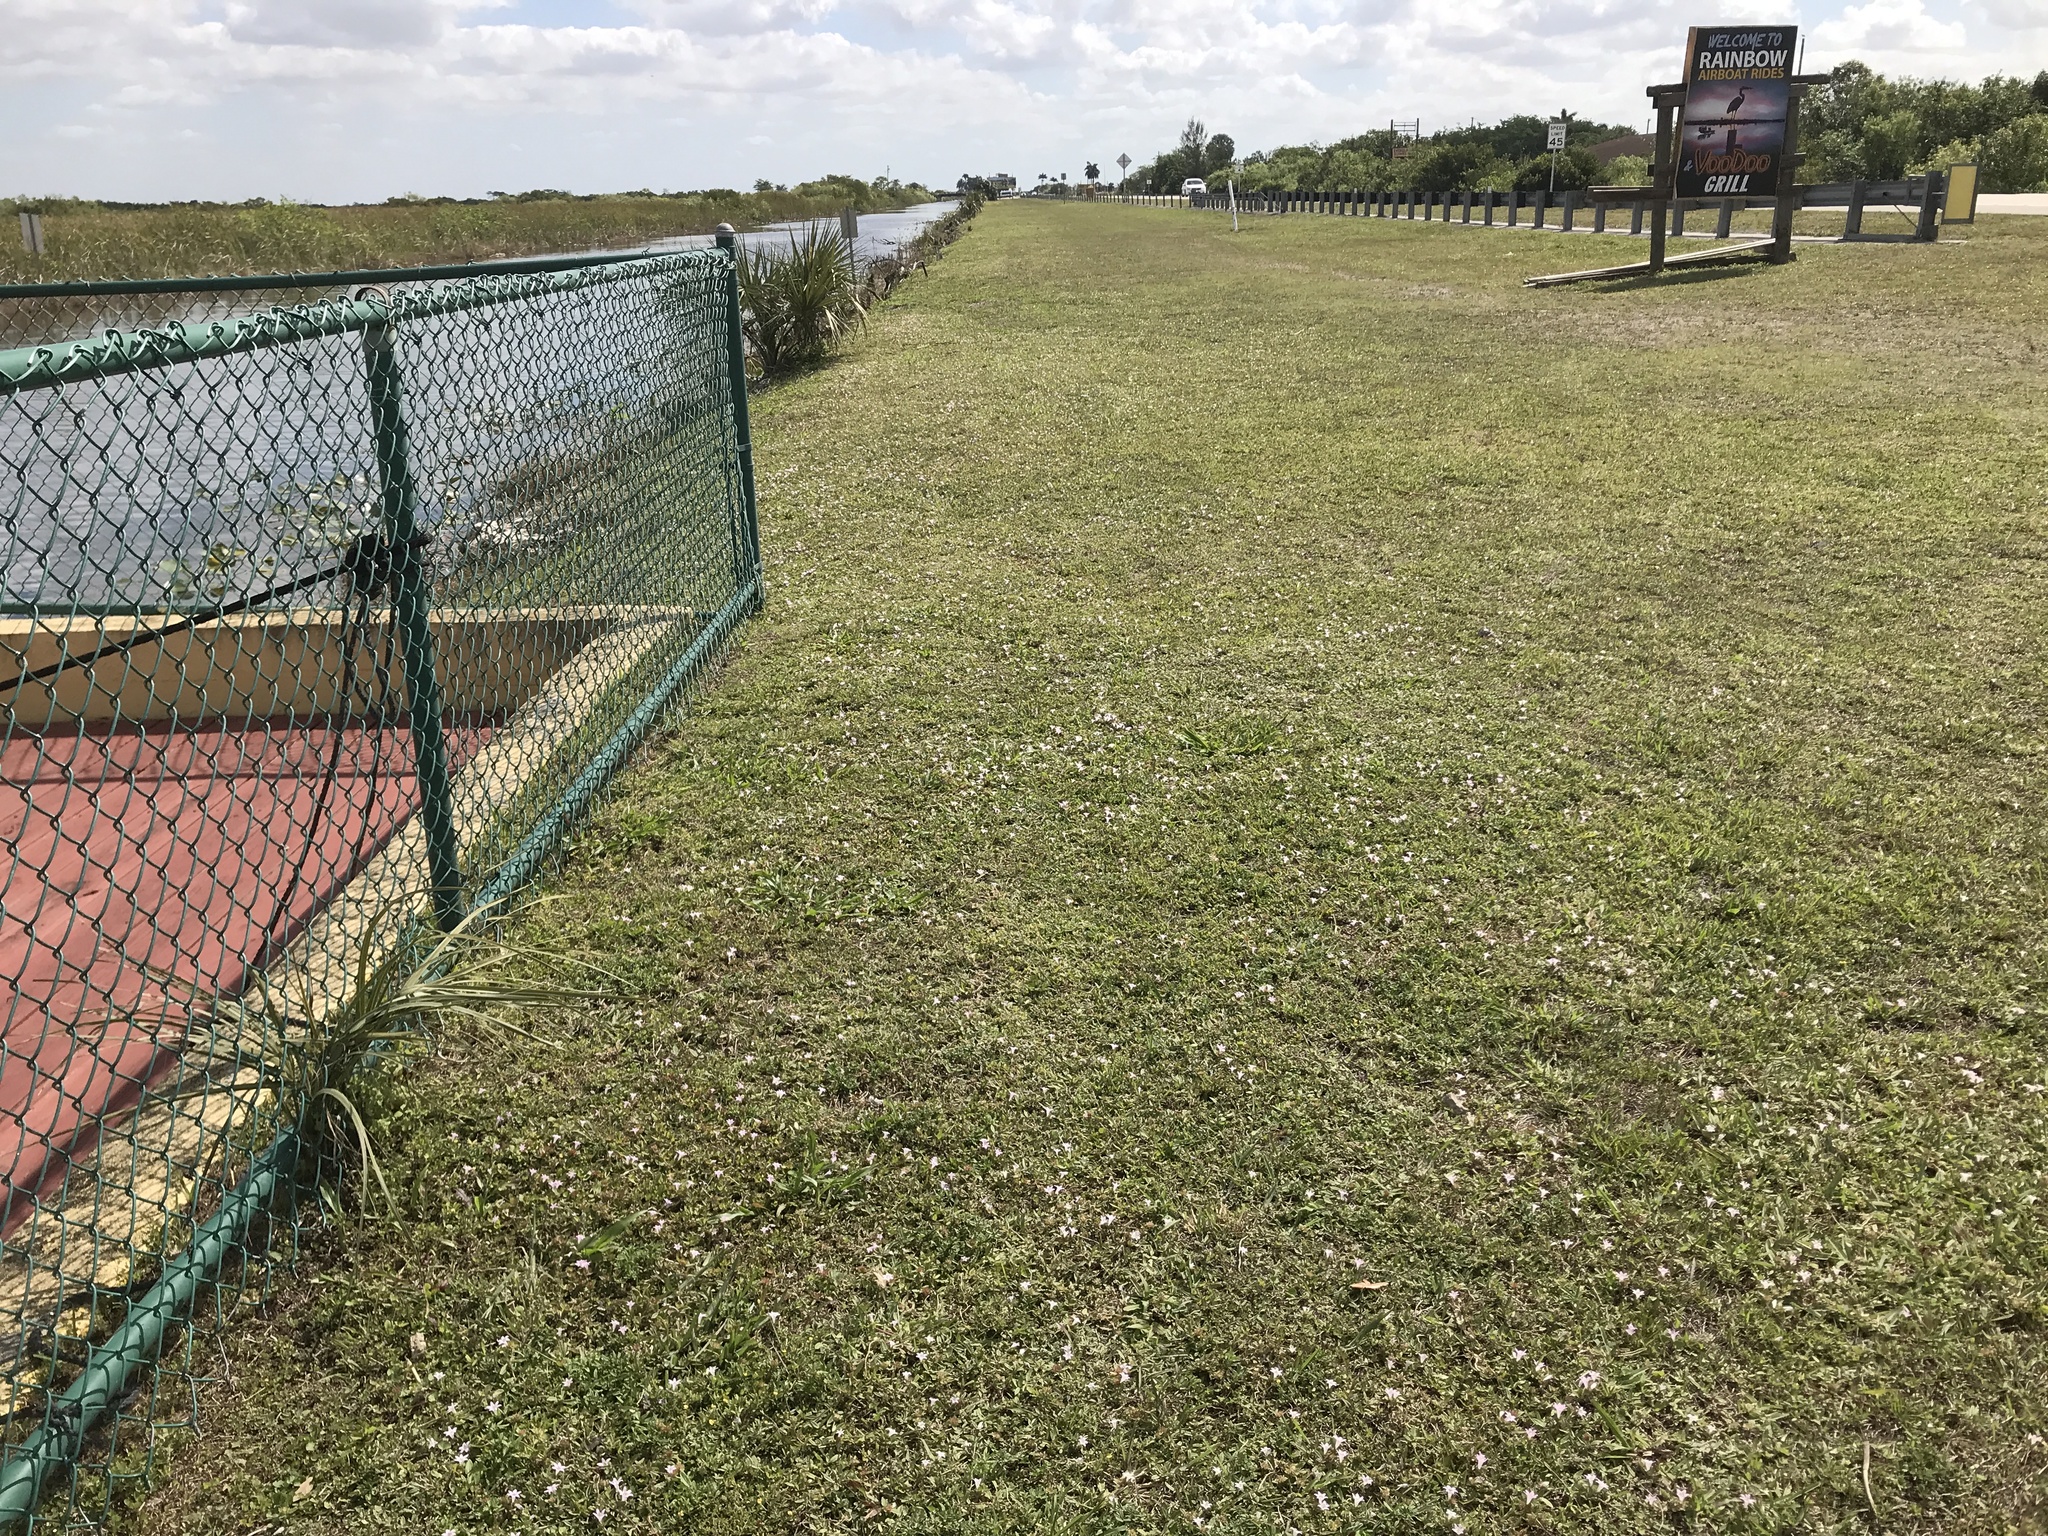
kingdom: Plantae
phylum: Tracheophyta
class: Magnoliopsida
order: Gentianales
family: Rubiaceae
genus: Richardia
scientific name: Richardia grandiflora
